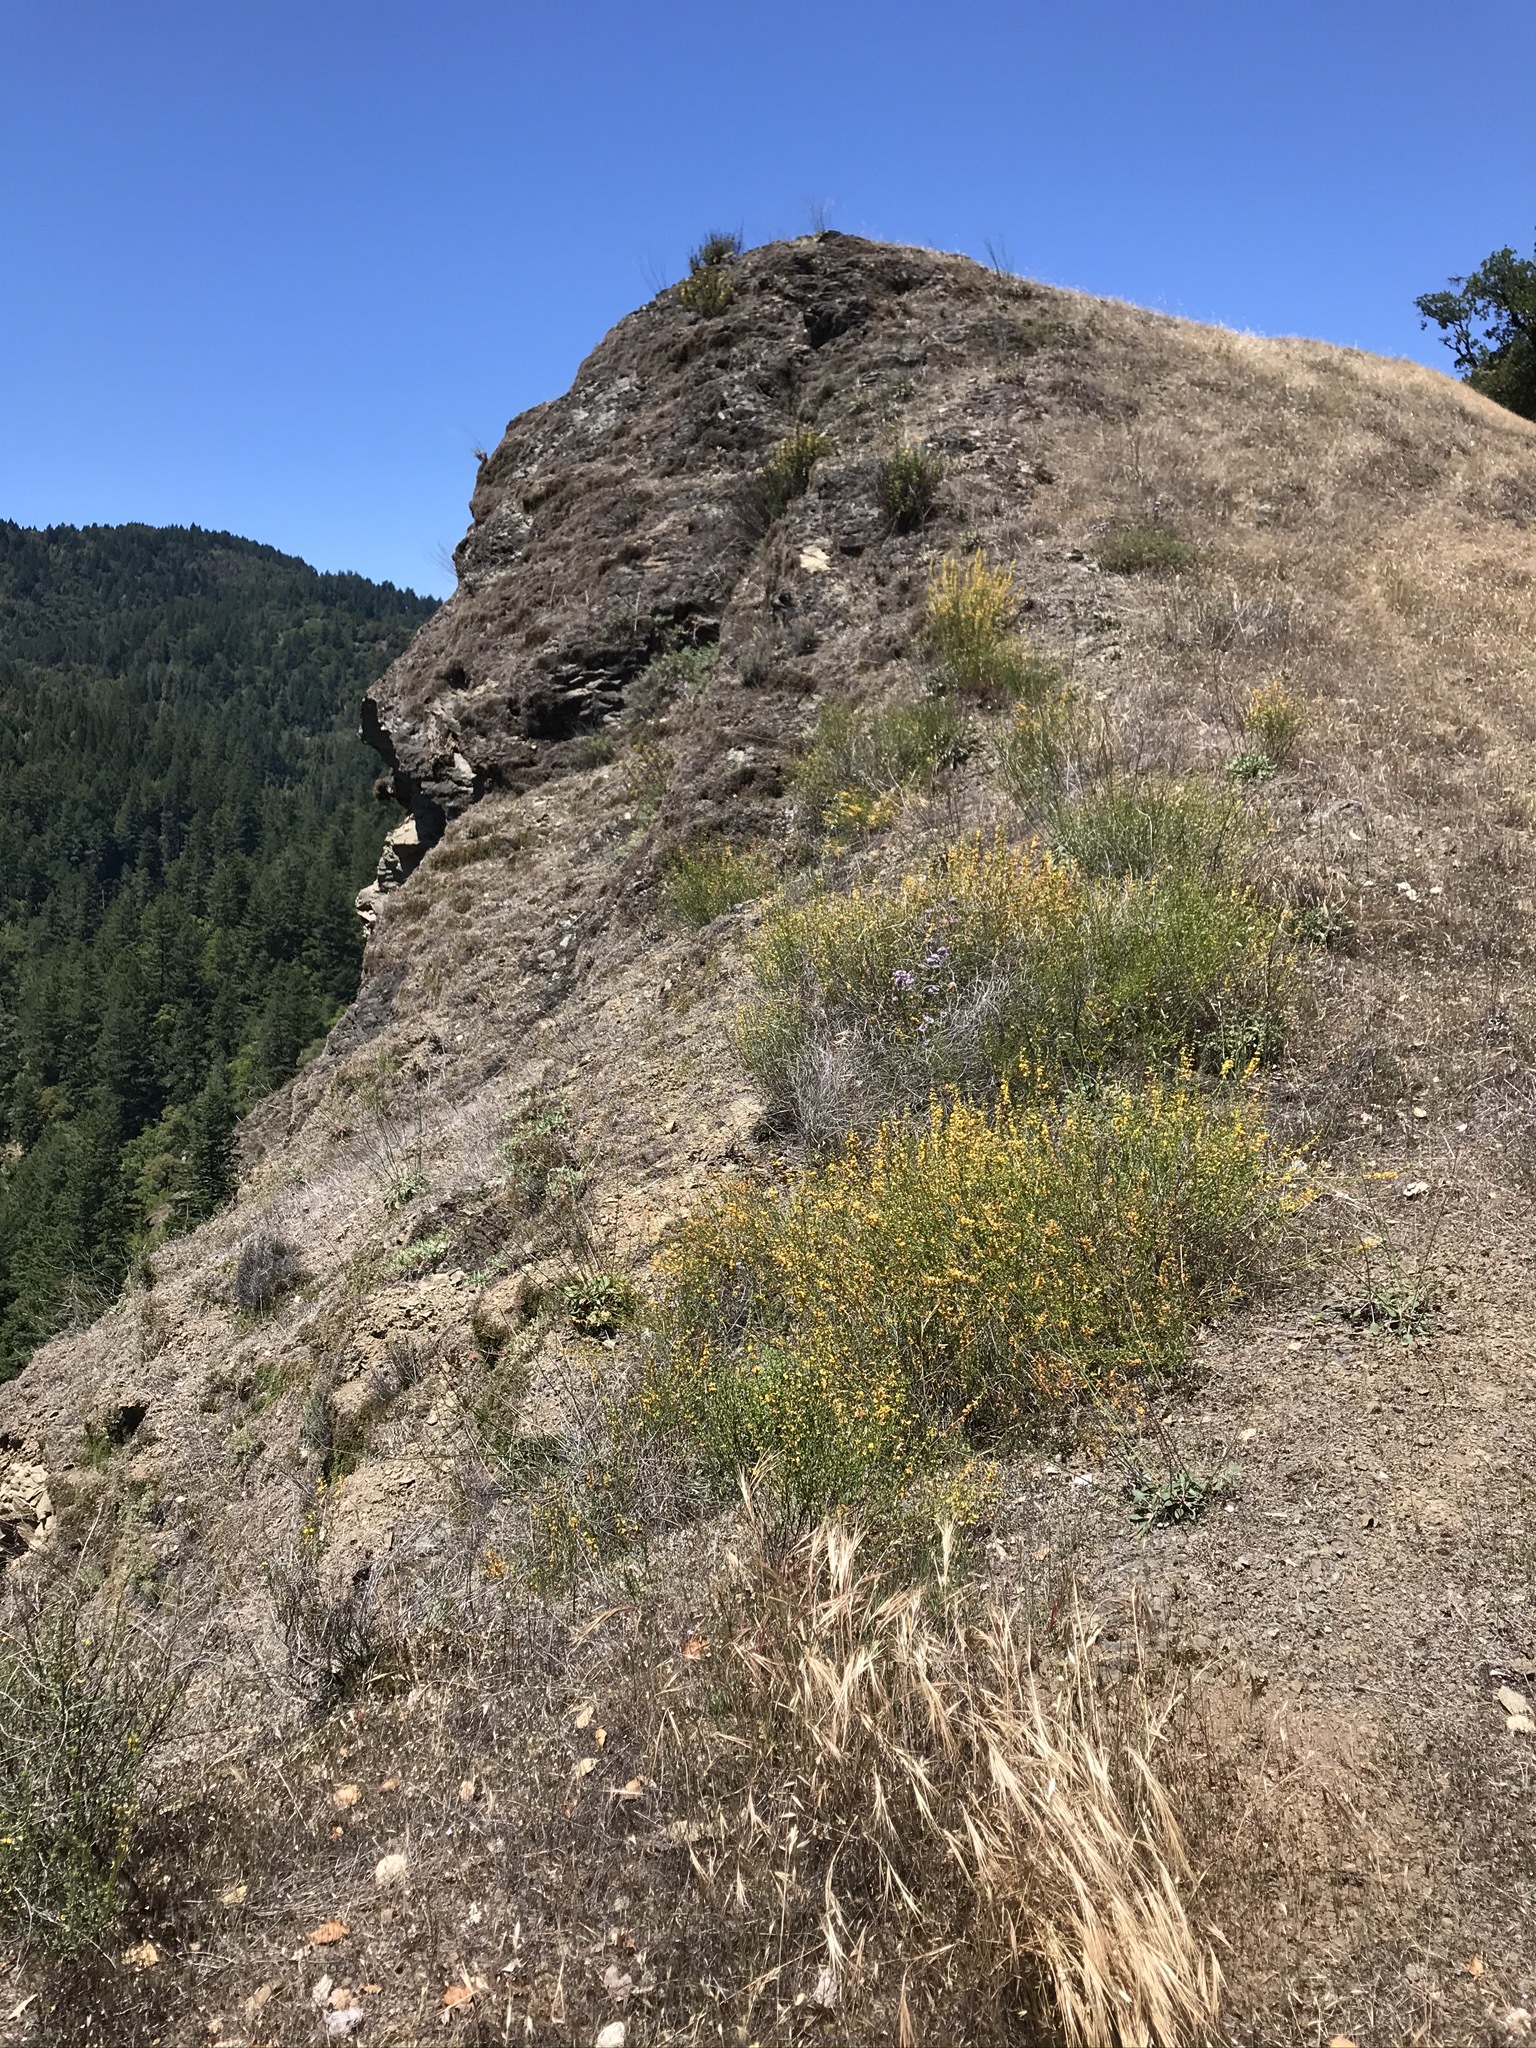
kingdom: Plantae
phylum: Tracheophyta
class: Magnoliopsida
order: Fabales
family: Fabaceae
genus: Acmispon
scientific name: Acmispon glaber
